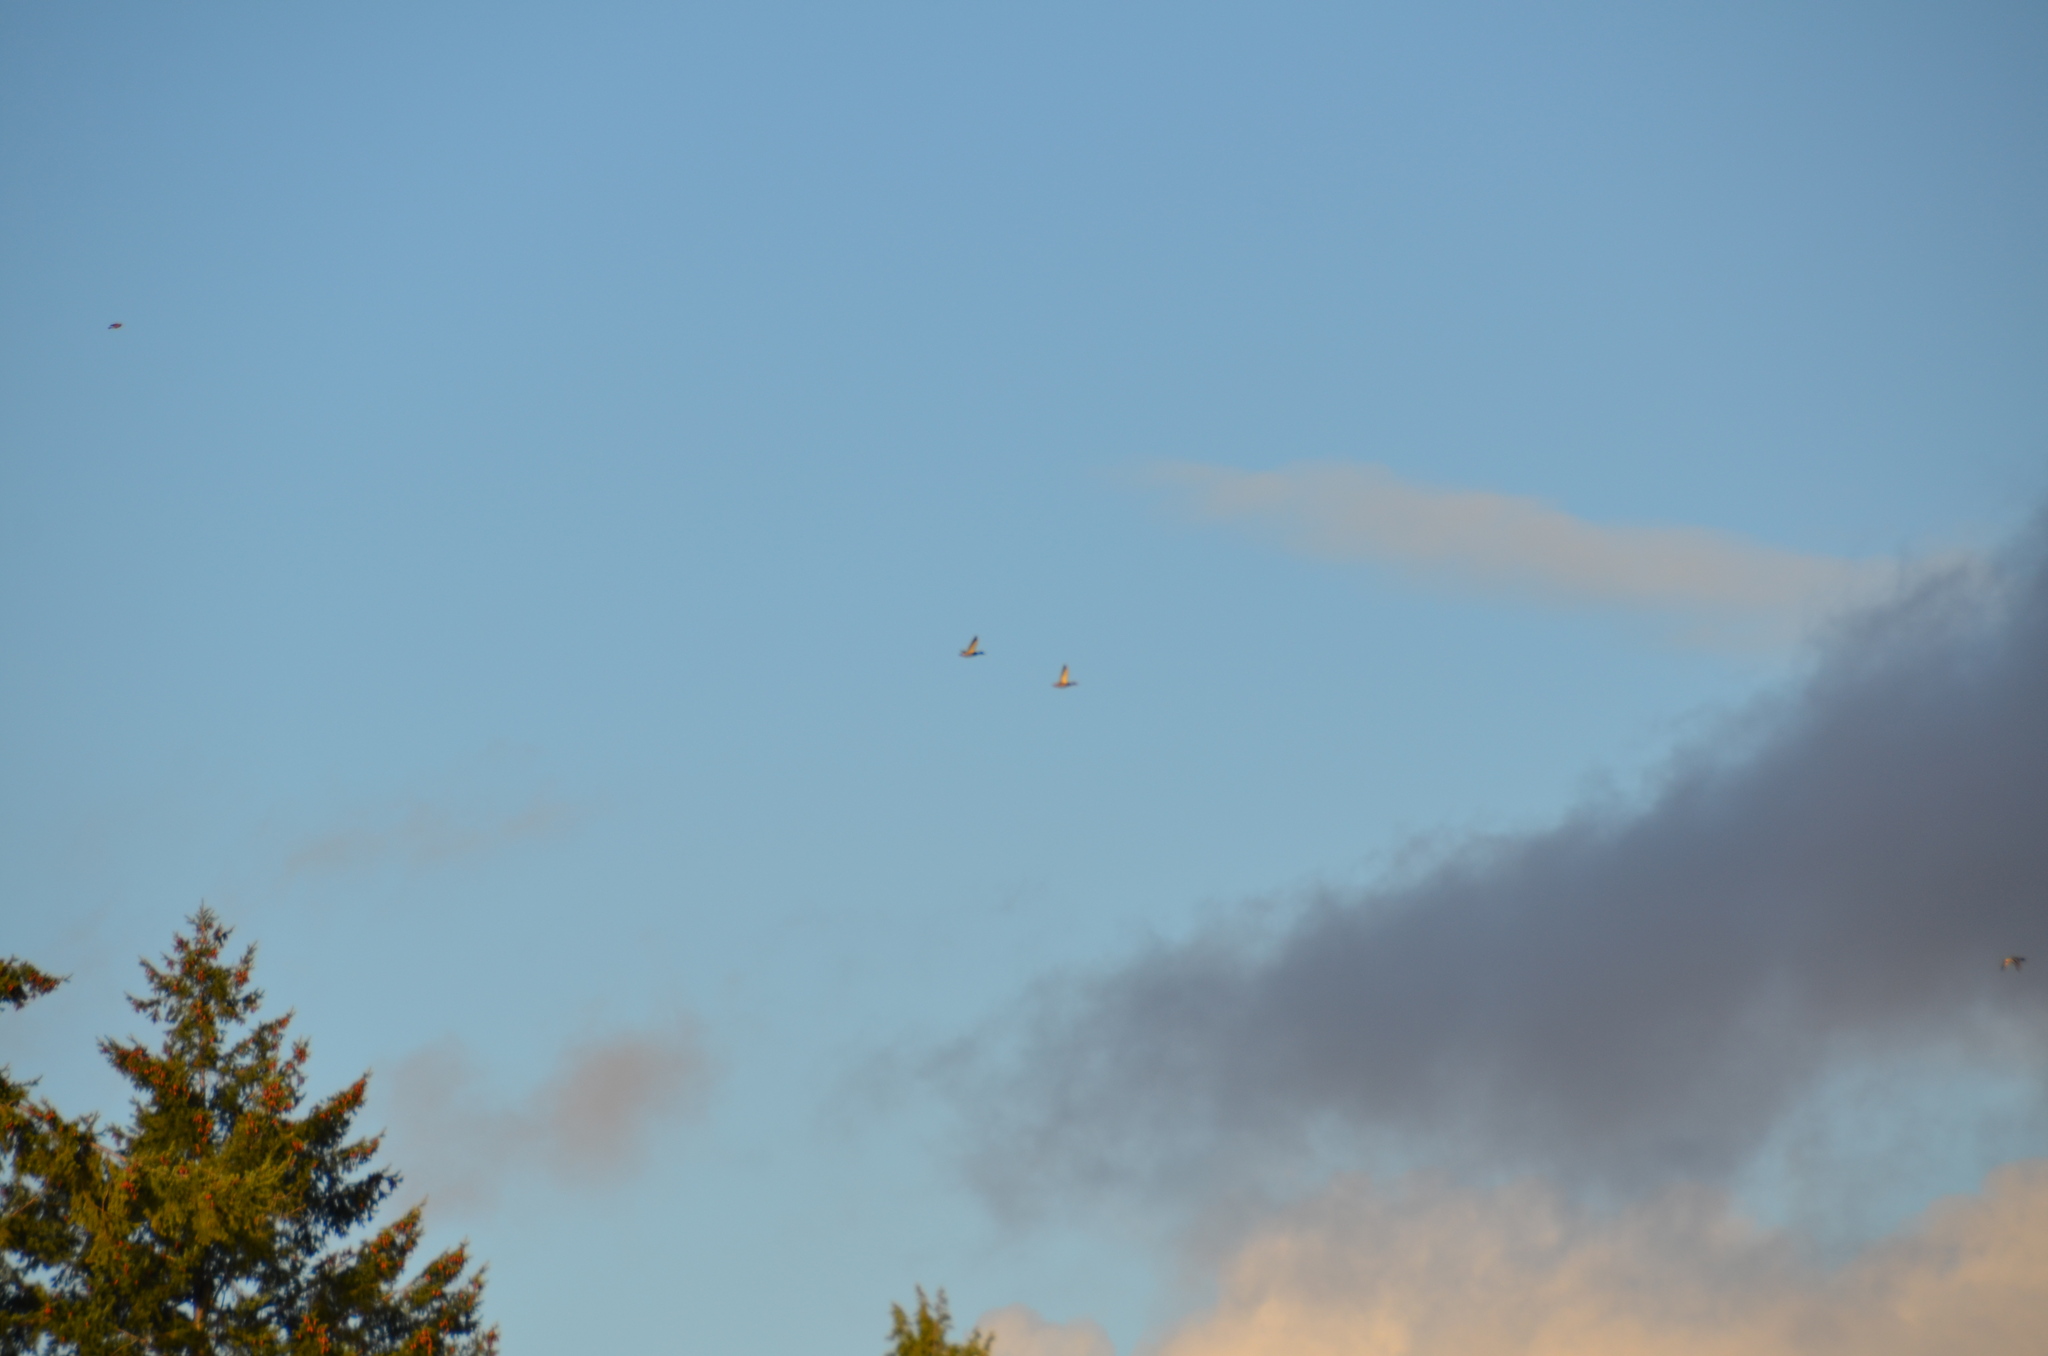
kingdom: Animalia
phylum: Chordata
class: Aves
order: Anseriformes
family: Anatidae
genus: Anas
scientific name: Anas platyrhynchos
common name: Mallard
